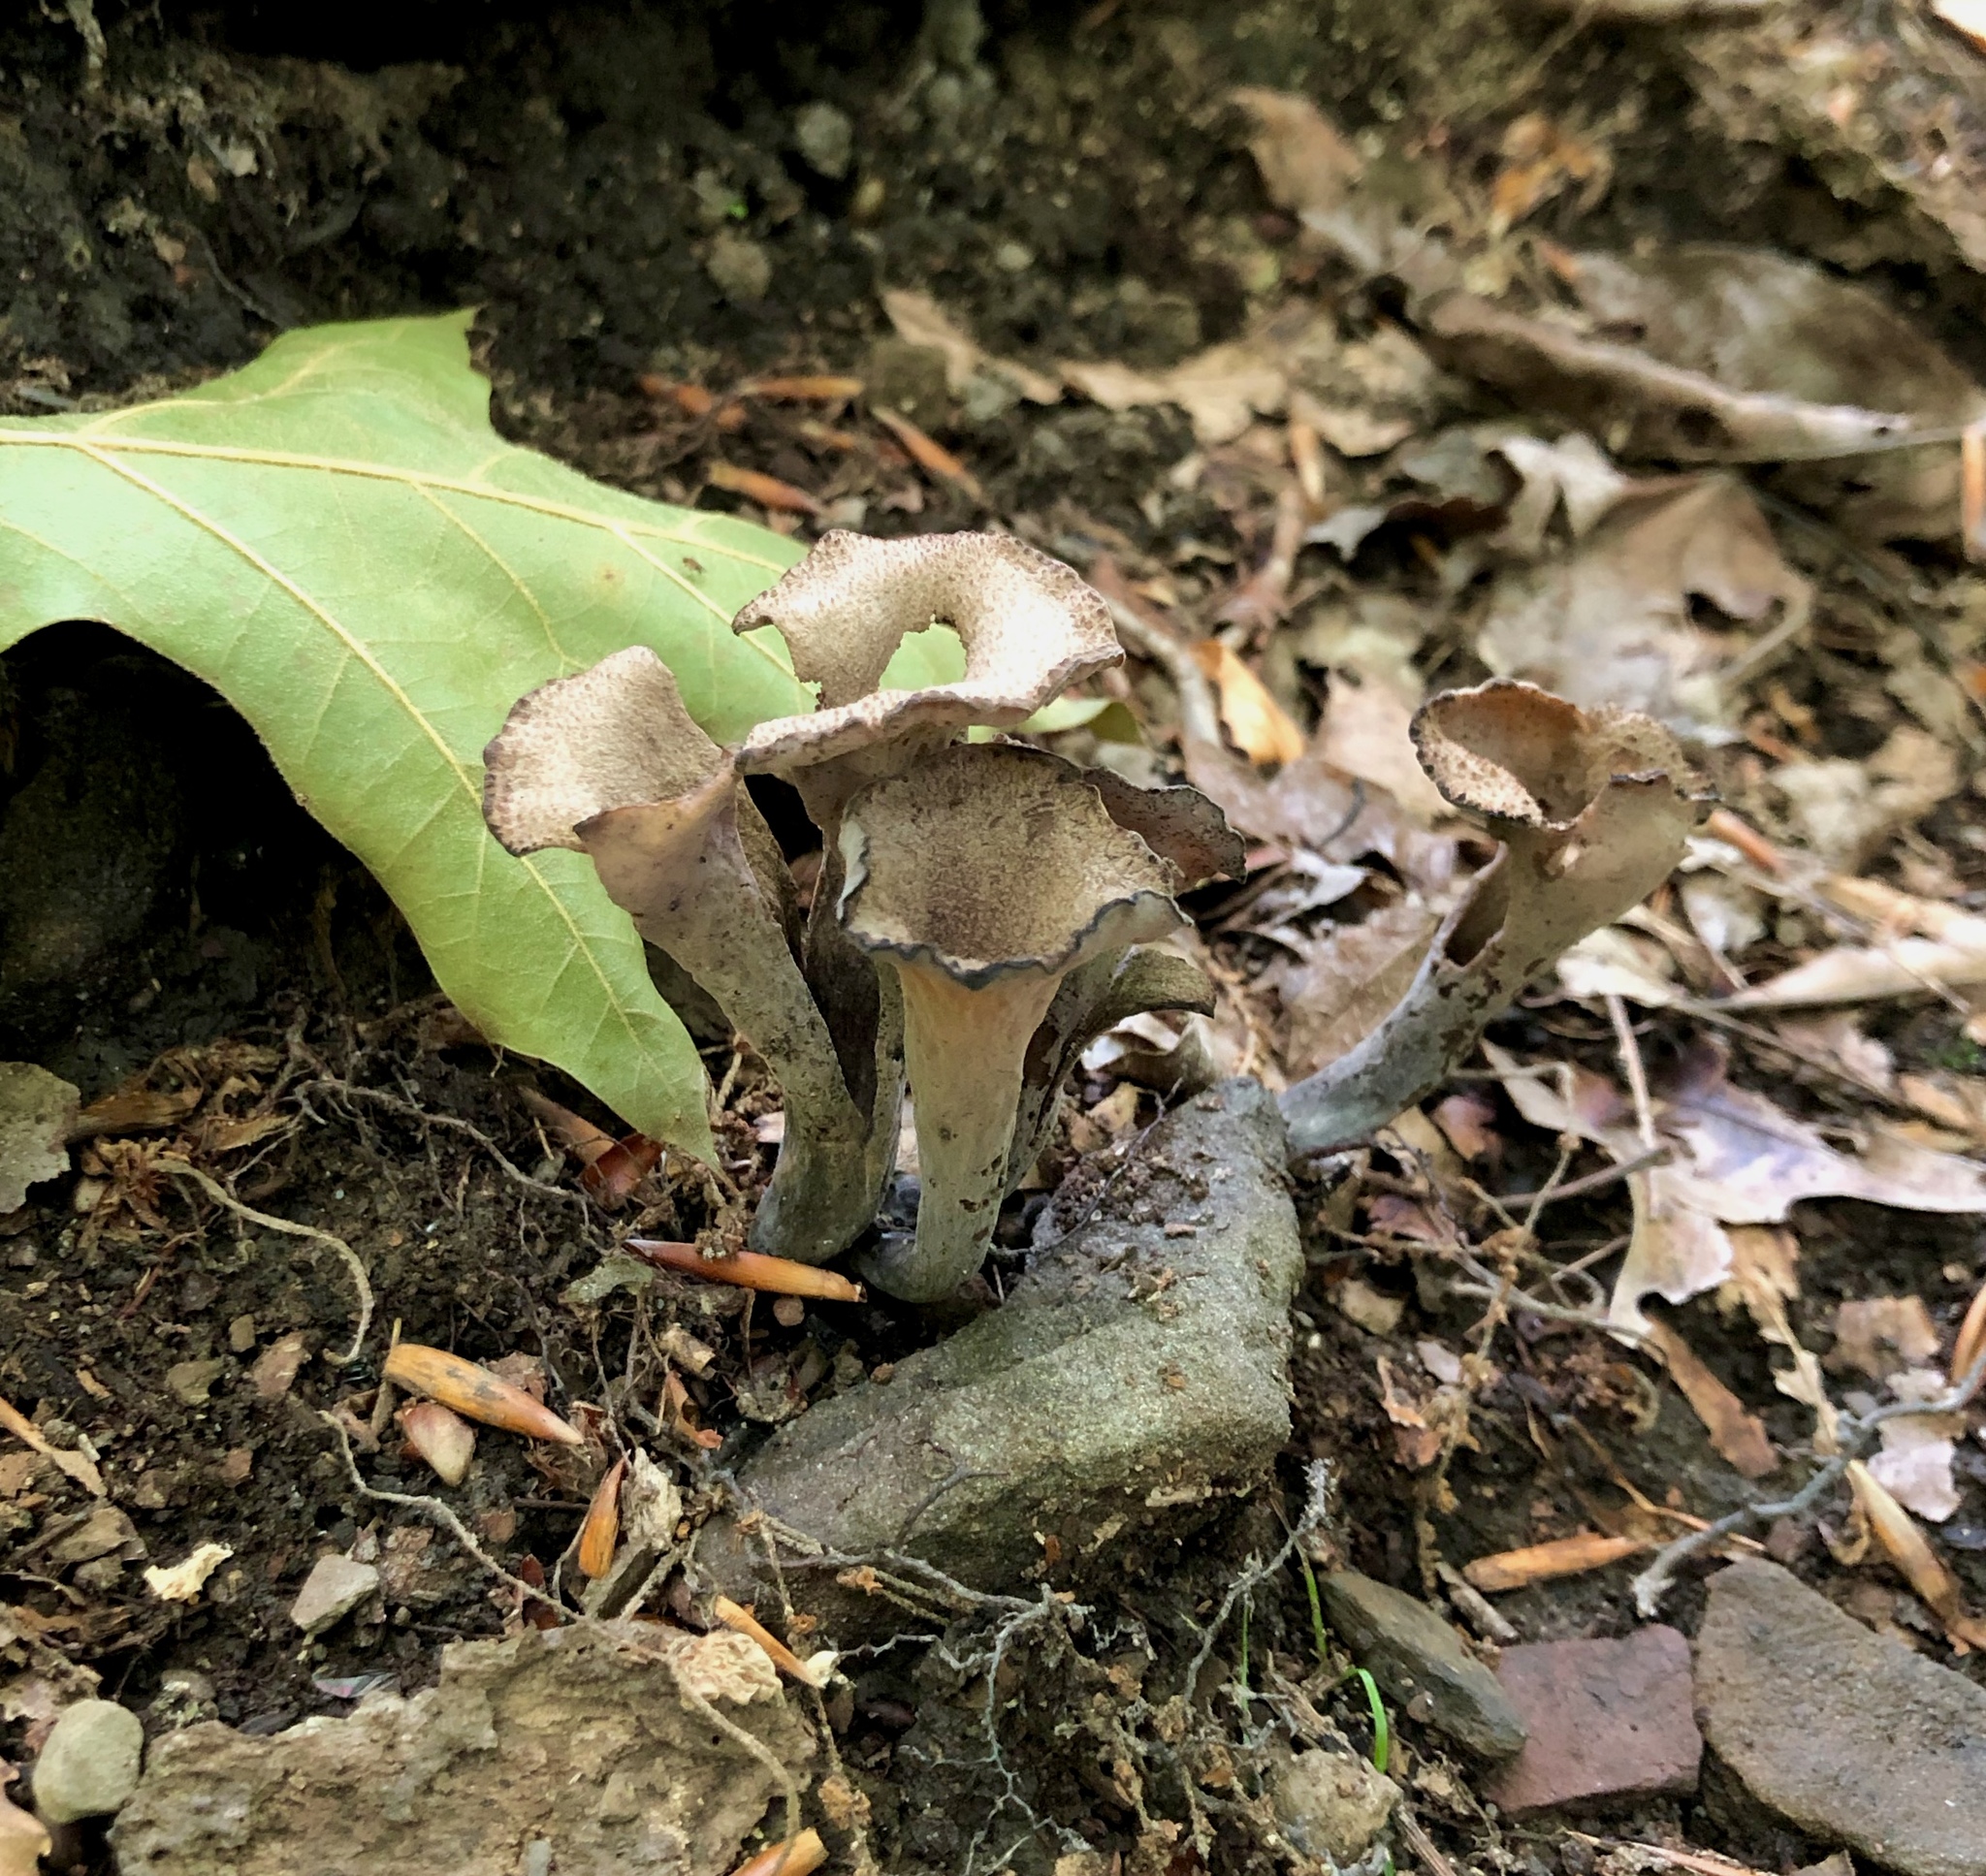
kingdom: Fungi
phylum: Basidiomycota
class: Agaricomycetes
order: Cantharellales
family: Hydnaceae
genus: Craterellus
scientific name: Craterellus cornucopioides
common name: Horn of plenty
